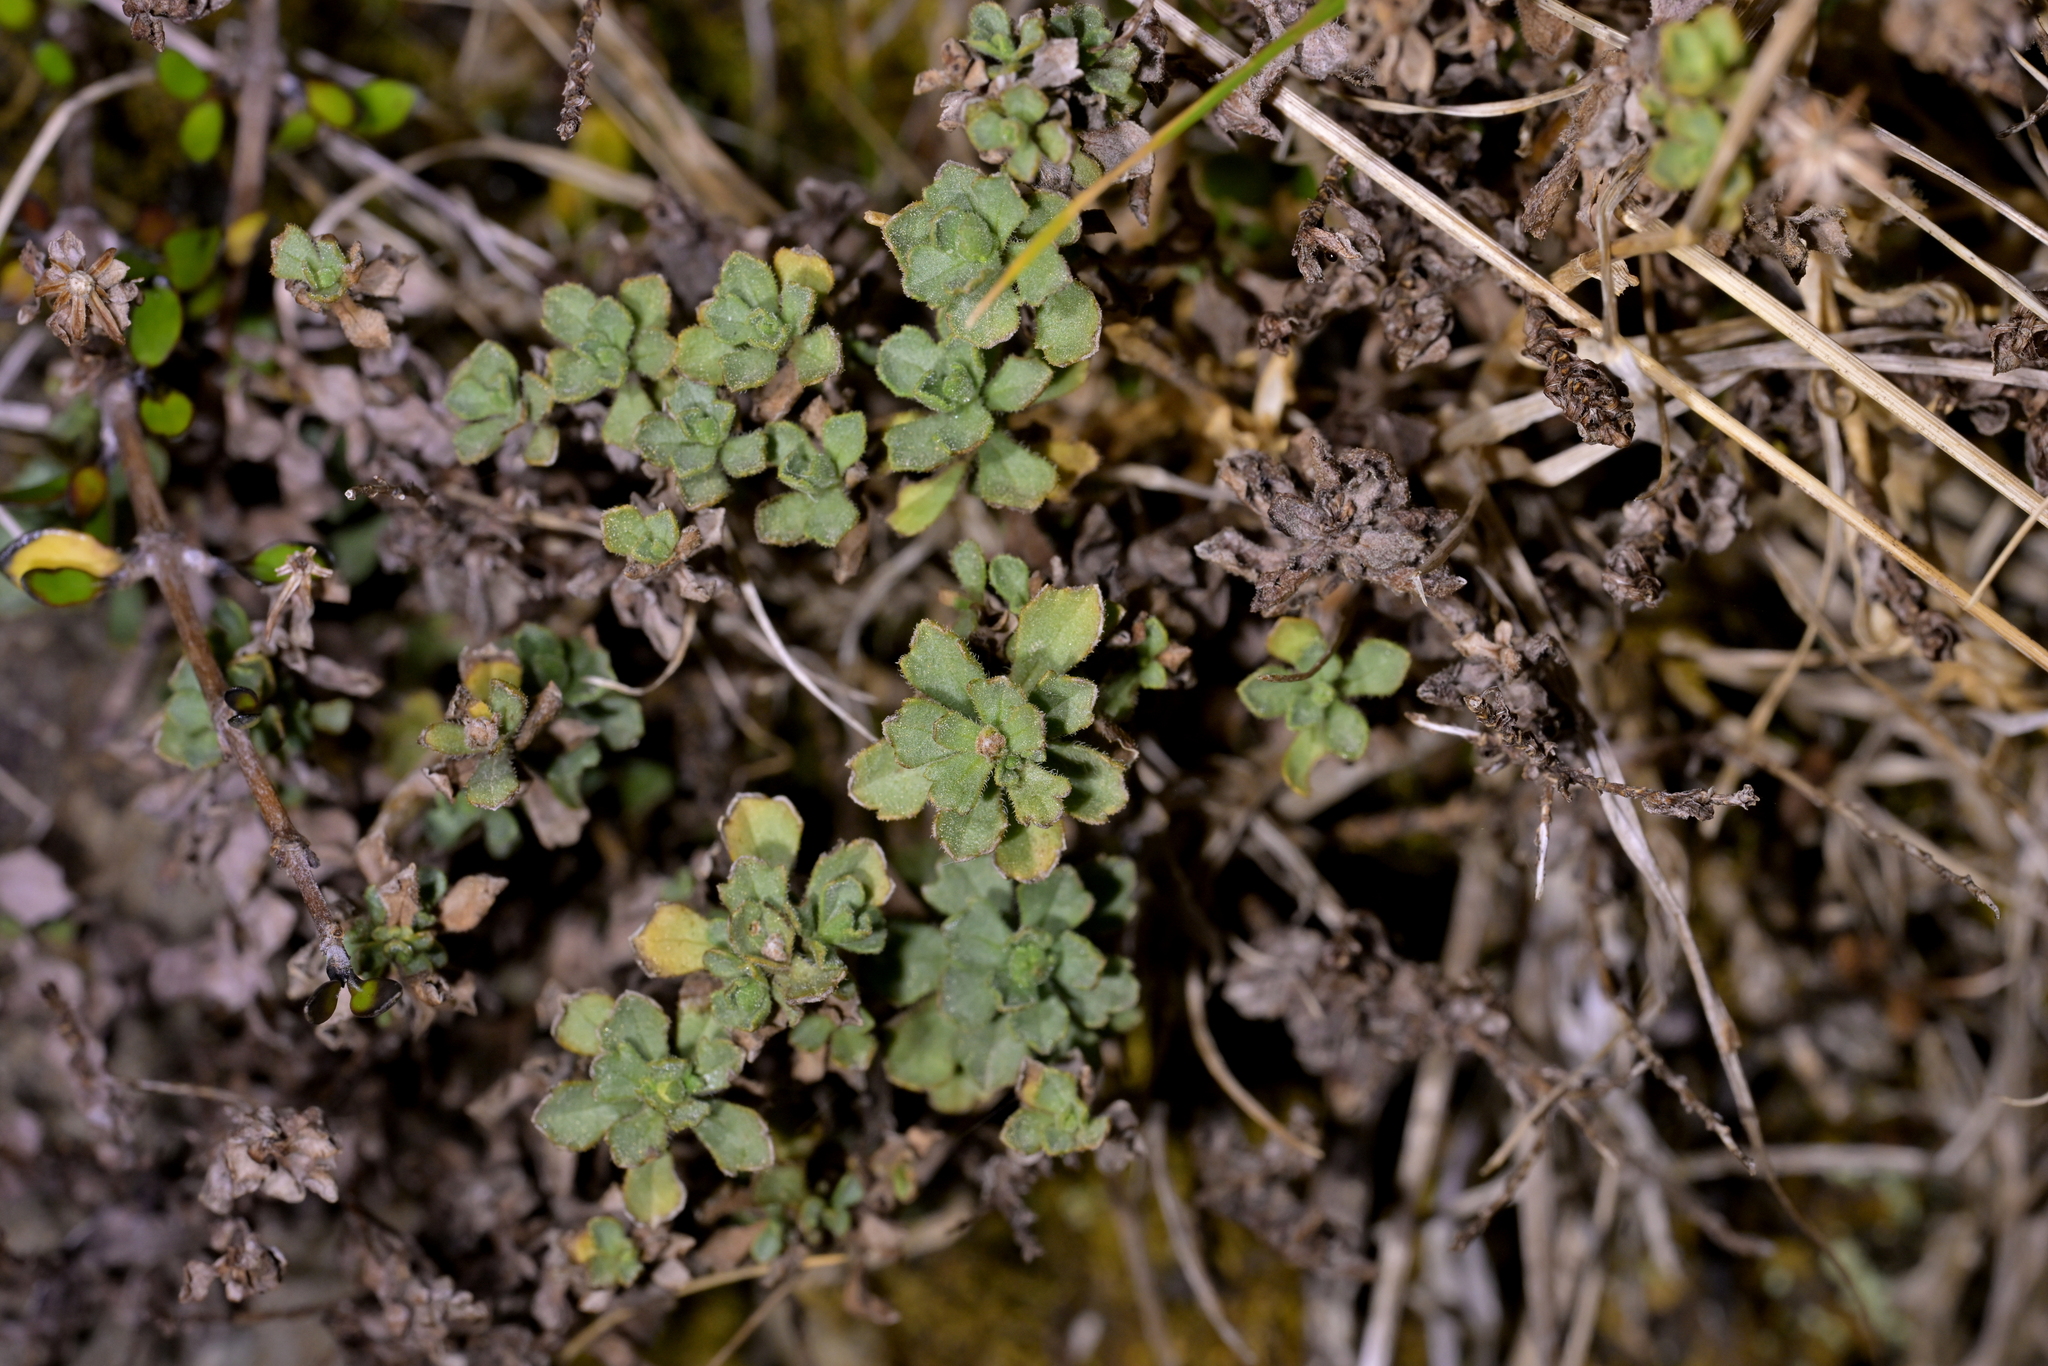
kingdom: Plantae
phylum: Tracheophyta
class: Magnoliopsida
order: Asterales
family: Asteraceae
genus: Vittadinia
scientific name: Vittadinia australis
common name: White fuzzweed
